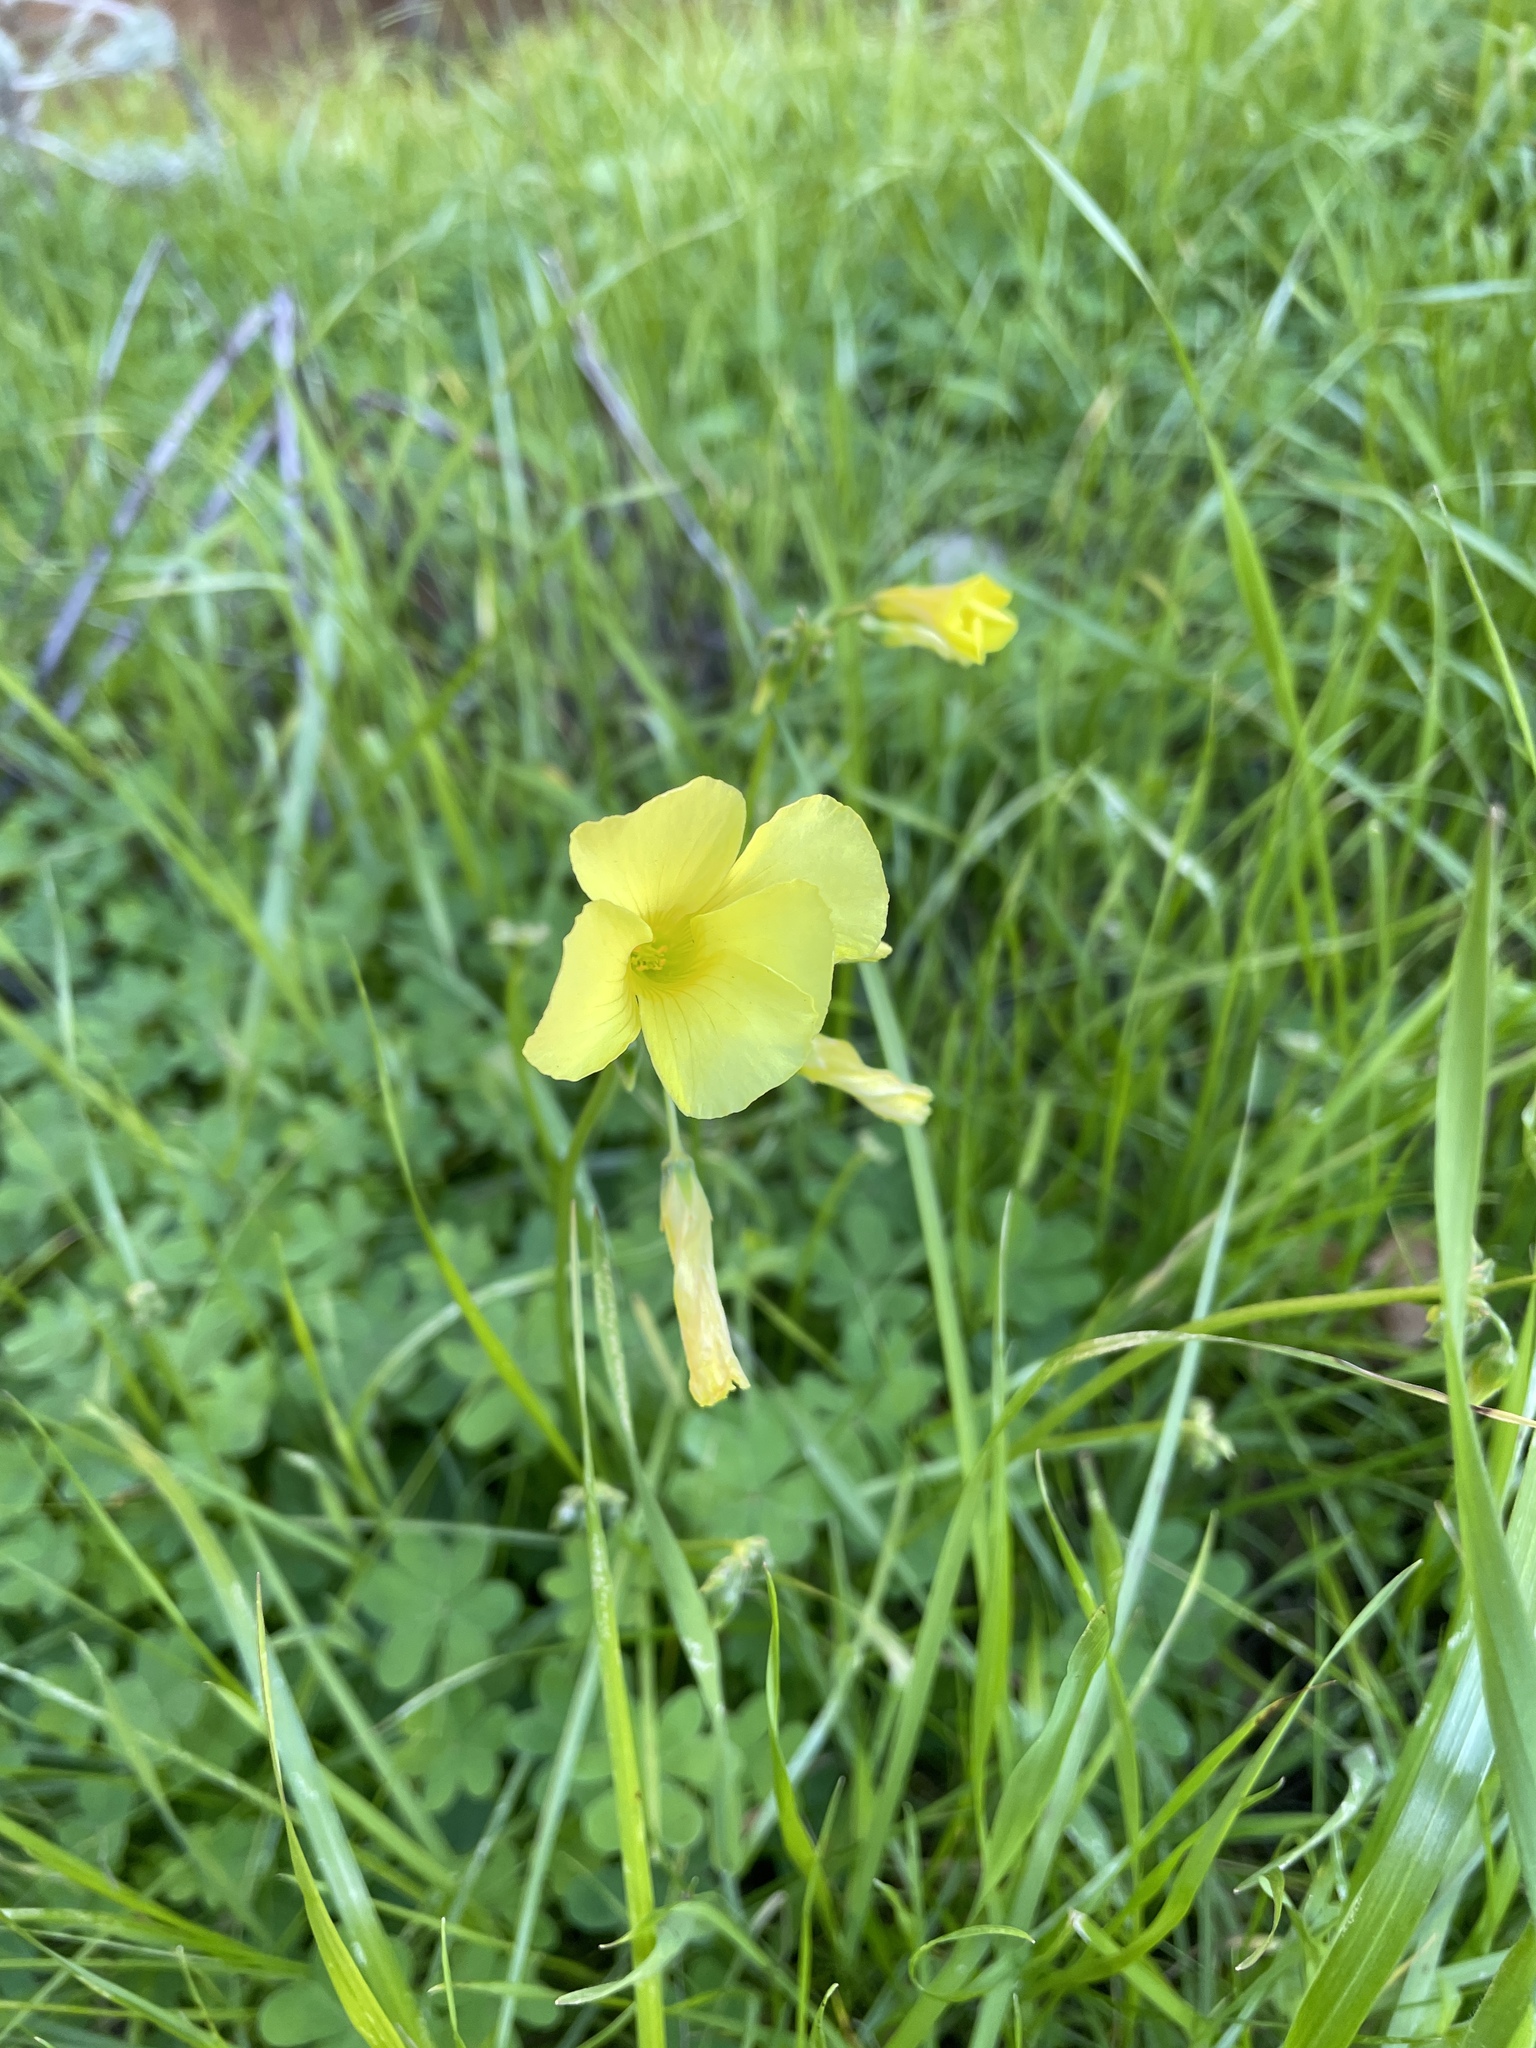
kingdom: Plantae
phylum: Tracheophyta
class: Magnoliopsida
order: Oxalidales
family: Oxalidaceae
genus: Oxalis
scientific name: Oxalis pes-caprae
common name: Bermuda-buttercup
